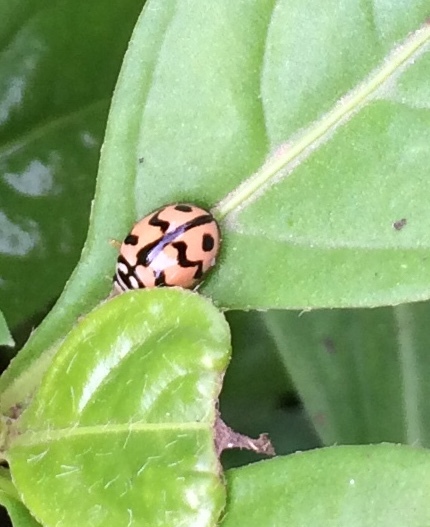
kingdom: Animalia
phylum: Arthropoda
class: Insecta
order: Coleoptera
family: Coccinellidae
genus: Cheilomenes
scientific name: Cheilomenes sexmaculata
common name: Ladybird beetle
